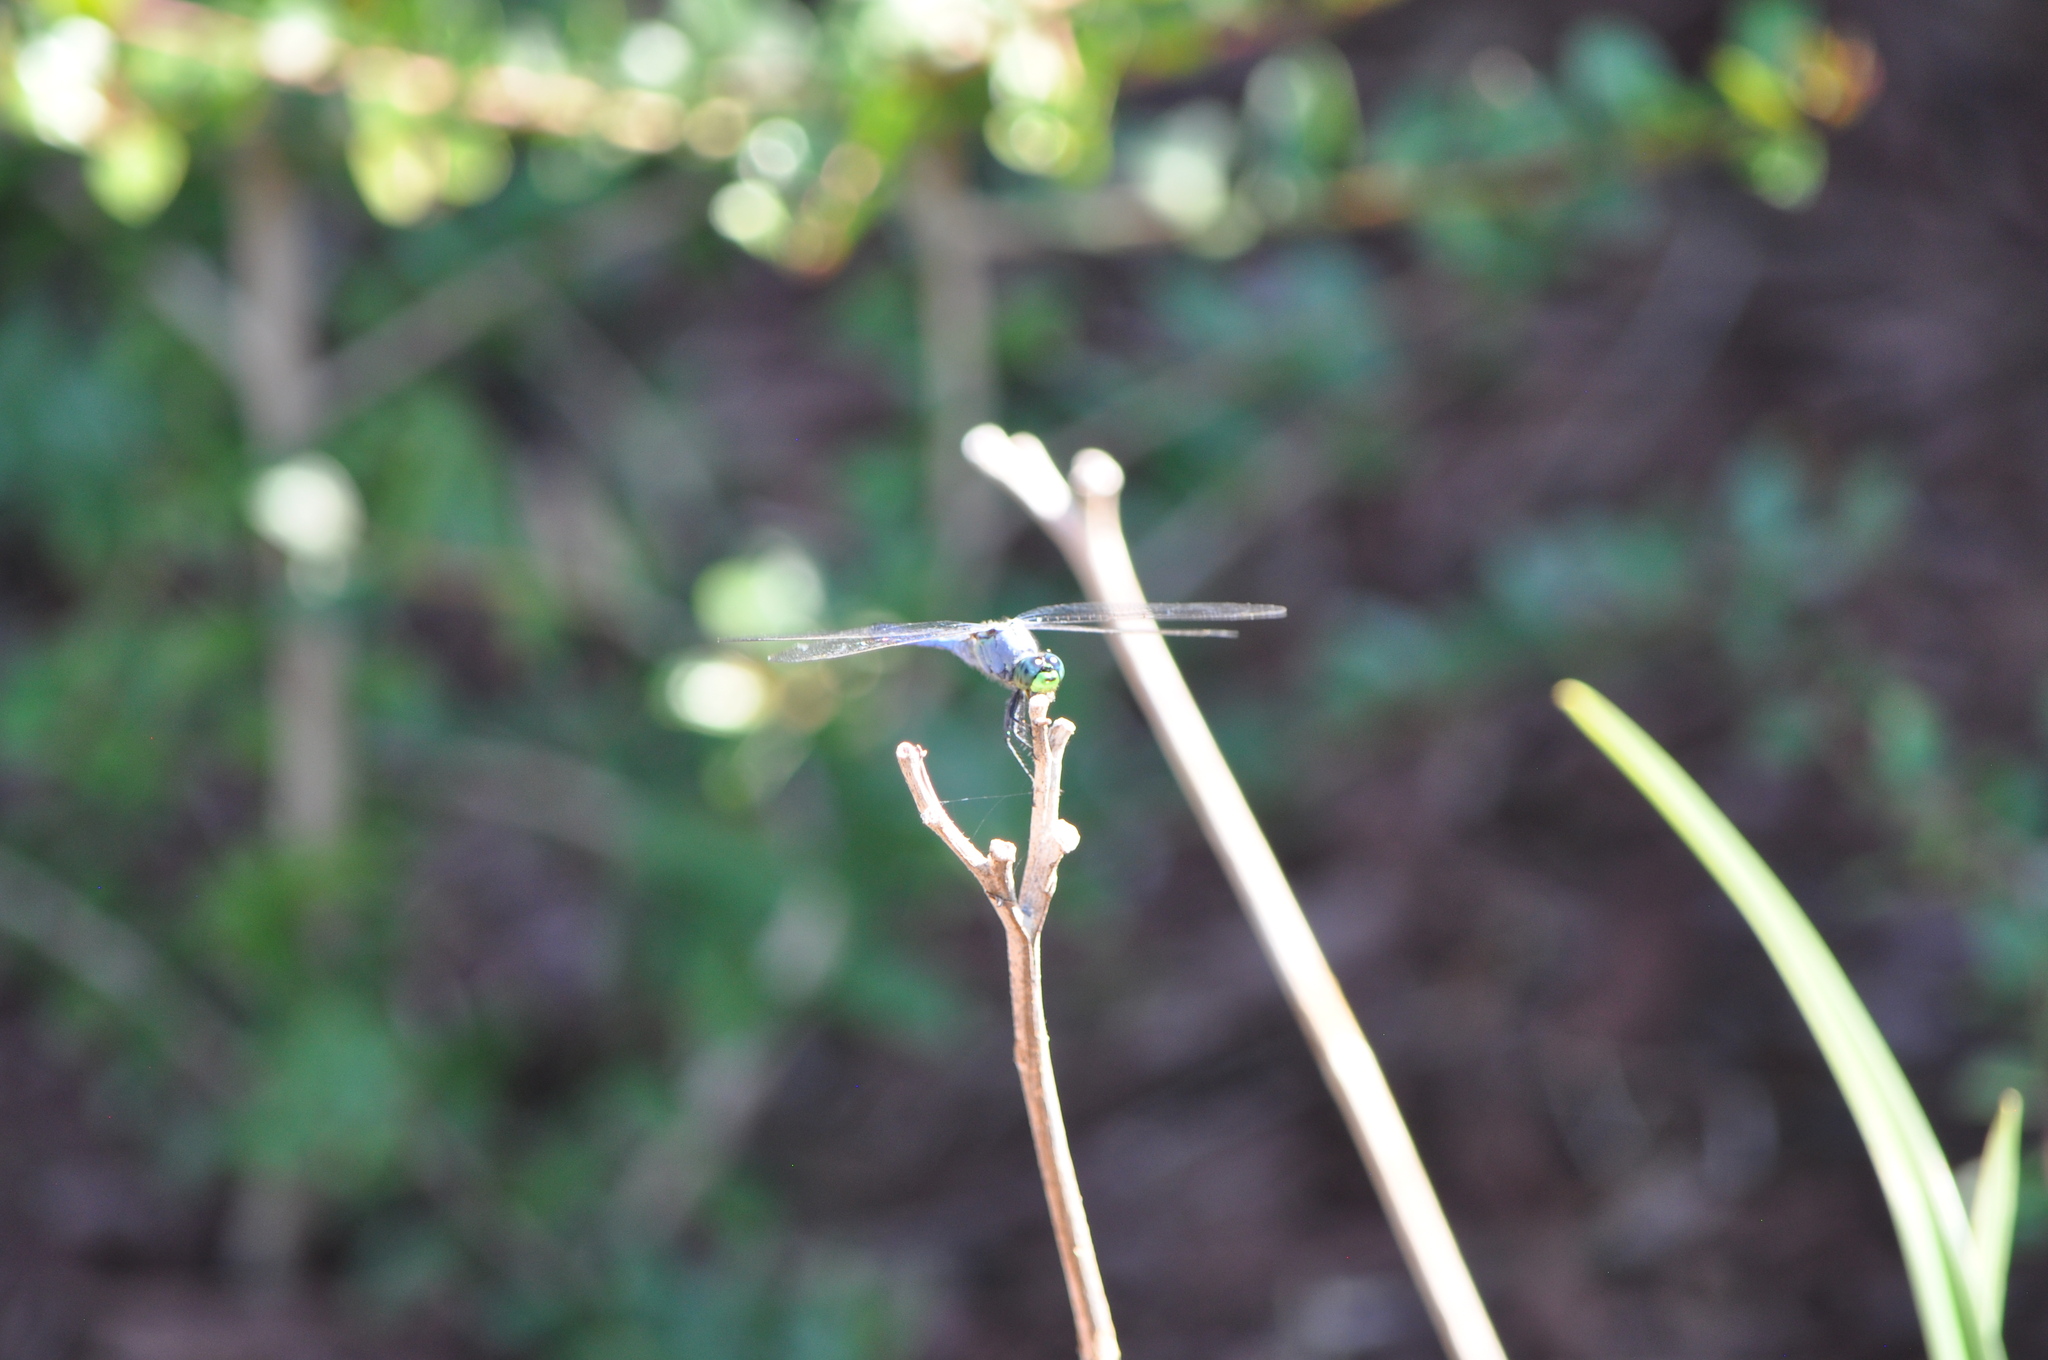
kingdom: Animalia
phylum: Arthropoda
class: Insecta
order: Odonata
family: Libellulidae
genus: Erythemis
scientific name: Erythemis simplicicollis
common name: Eastern pondhawk
